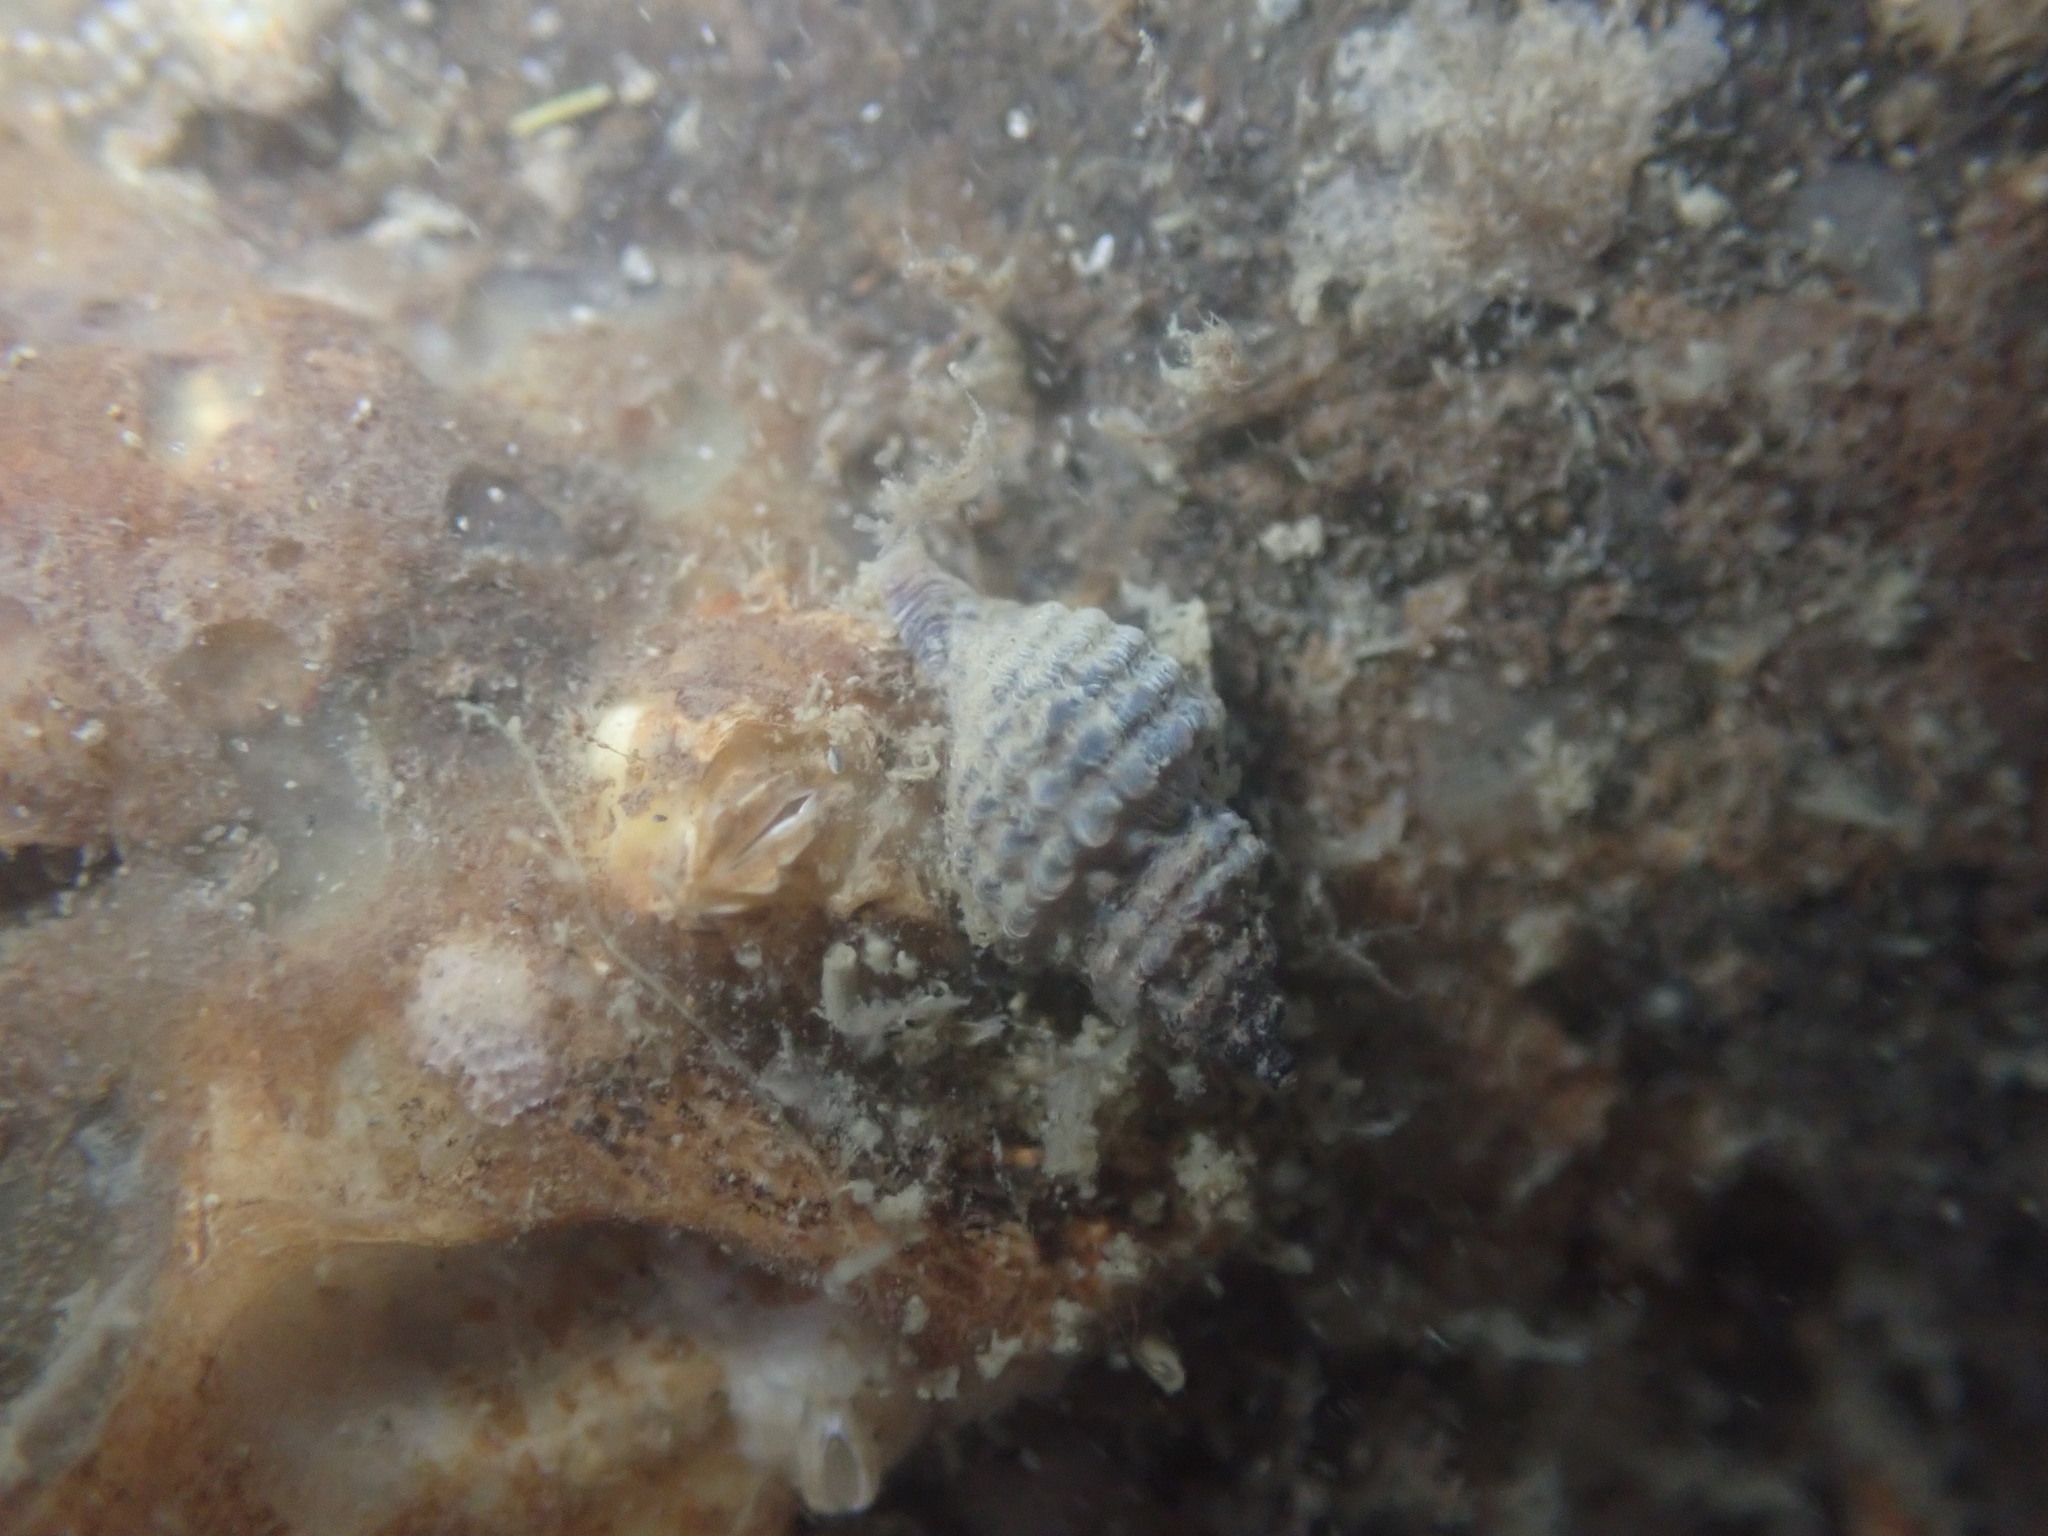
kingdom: Animalia
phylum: Mollusca
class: Gastropoda
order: Neogastropoda
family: Muricidae
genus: Xymene
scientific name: Xymene plebeius
